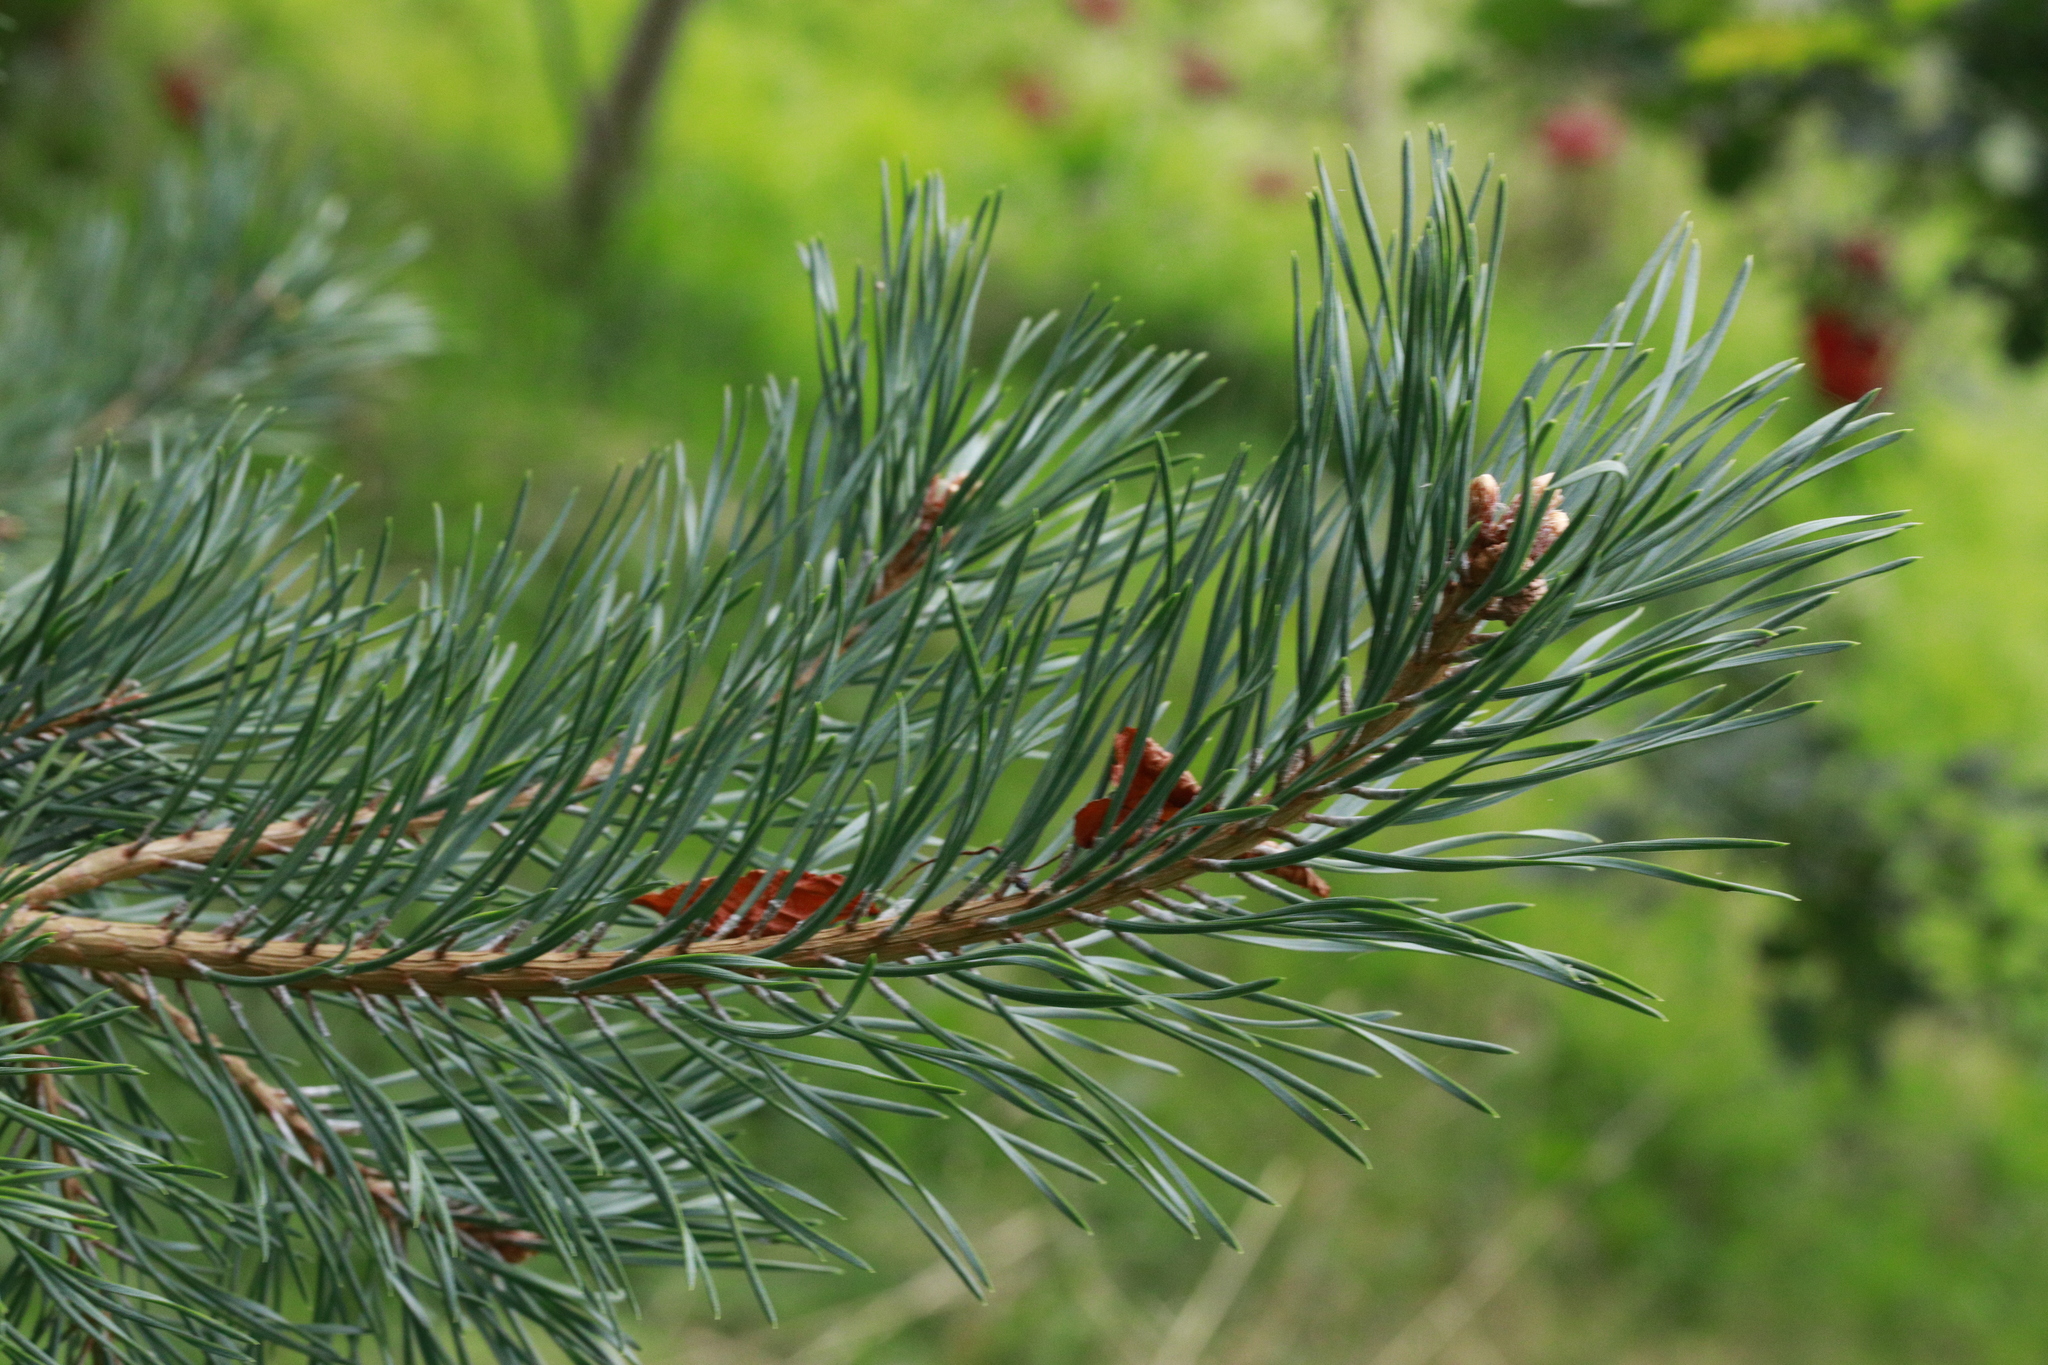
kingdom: Plantae
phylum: Tracheophyta
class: Pinopsida
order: Pinales
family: Pinaceae
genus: Pinus
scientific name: Pinus sylvestris
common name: Scots pine
